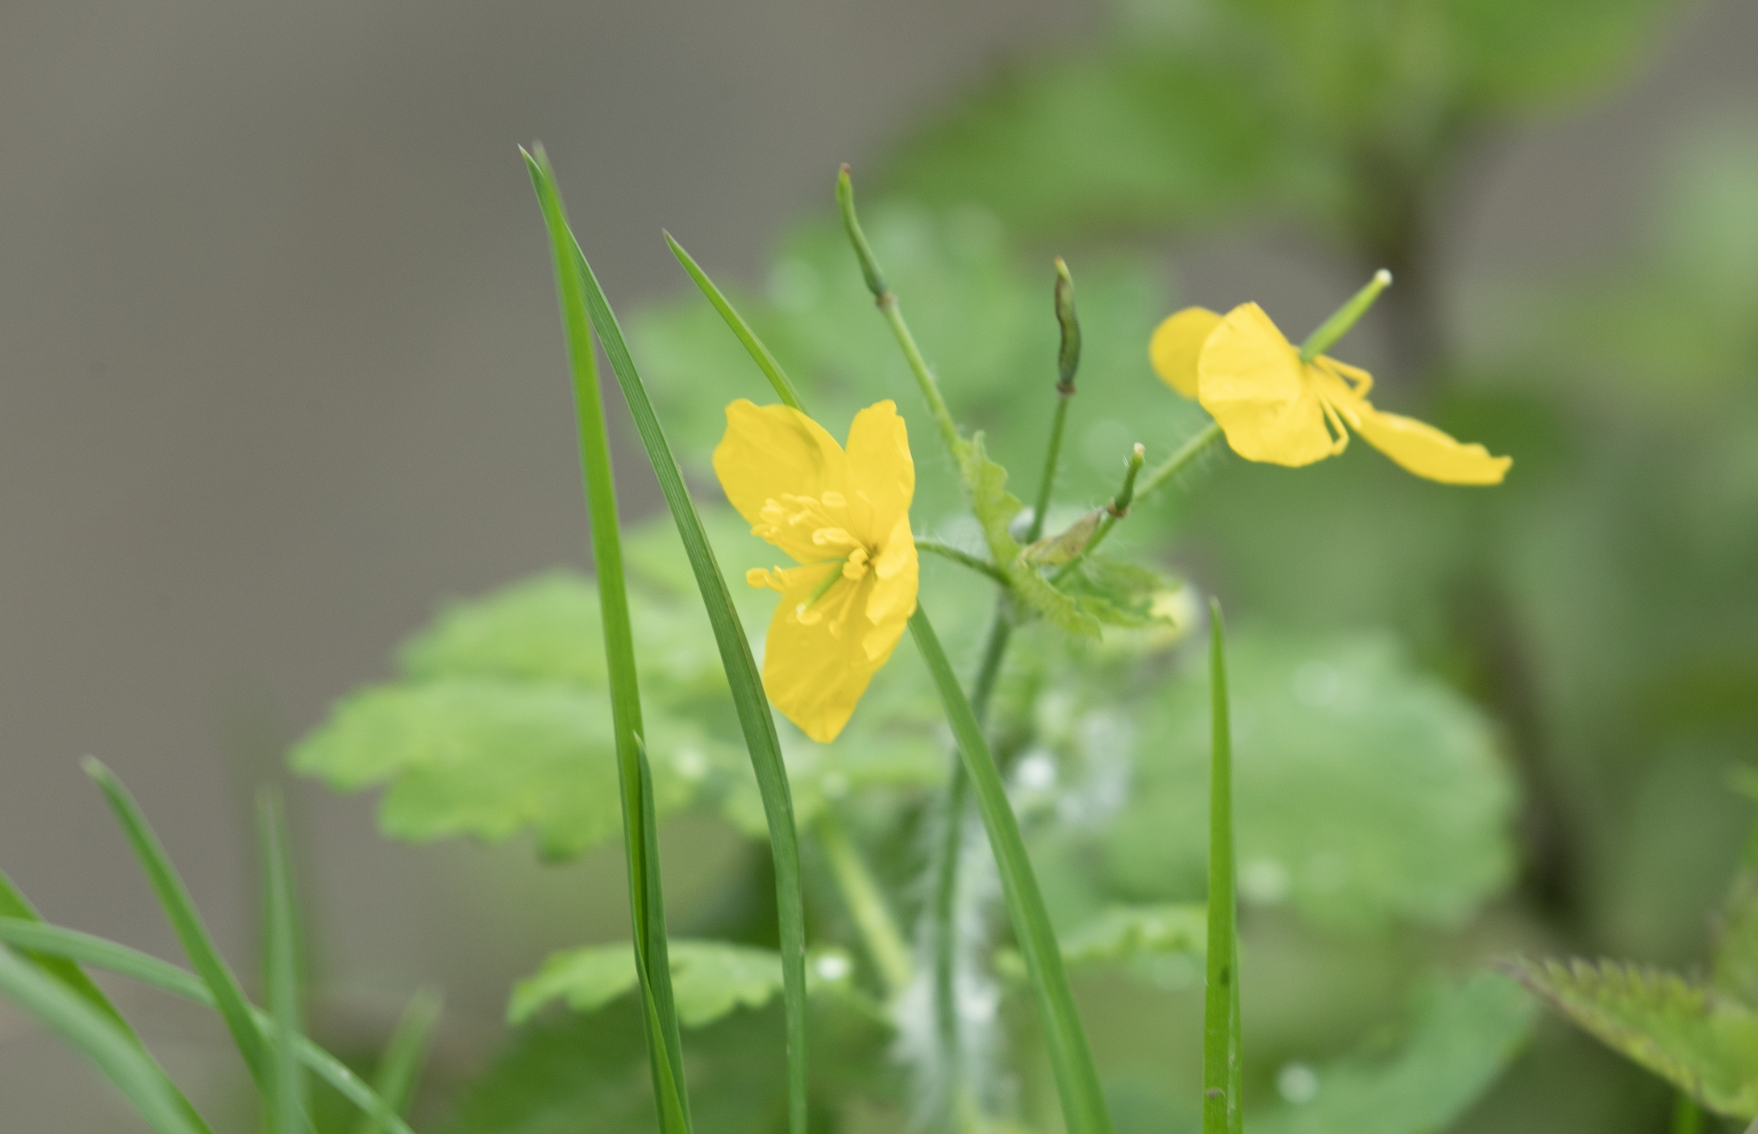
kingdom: Plantae
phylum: Tracheophyta
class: Magnoliopsida
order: Ranunculales
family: Papaveraceae
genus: Chelidonium
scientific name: Chelidonium majus
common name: Greater celandine
